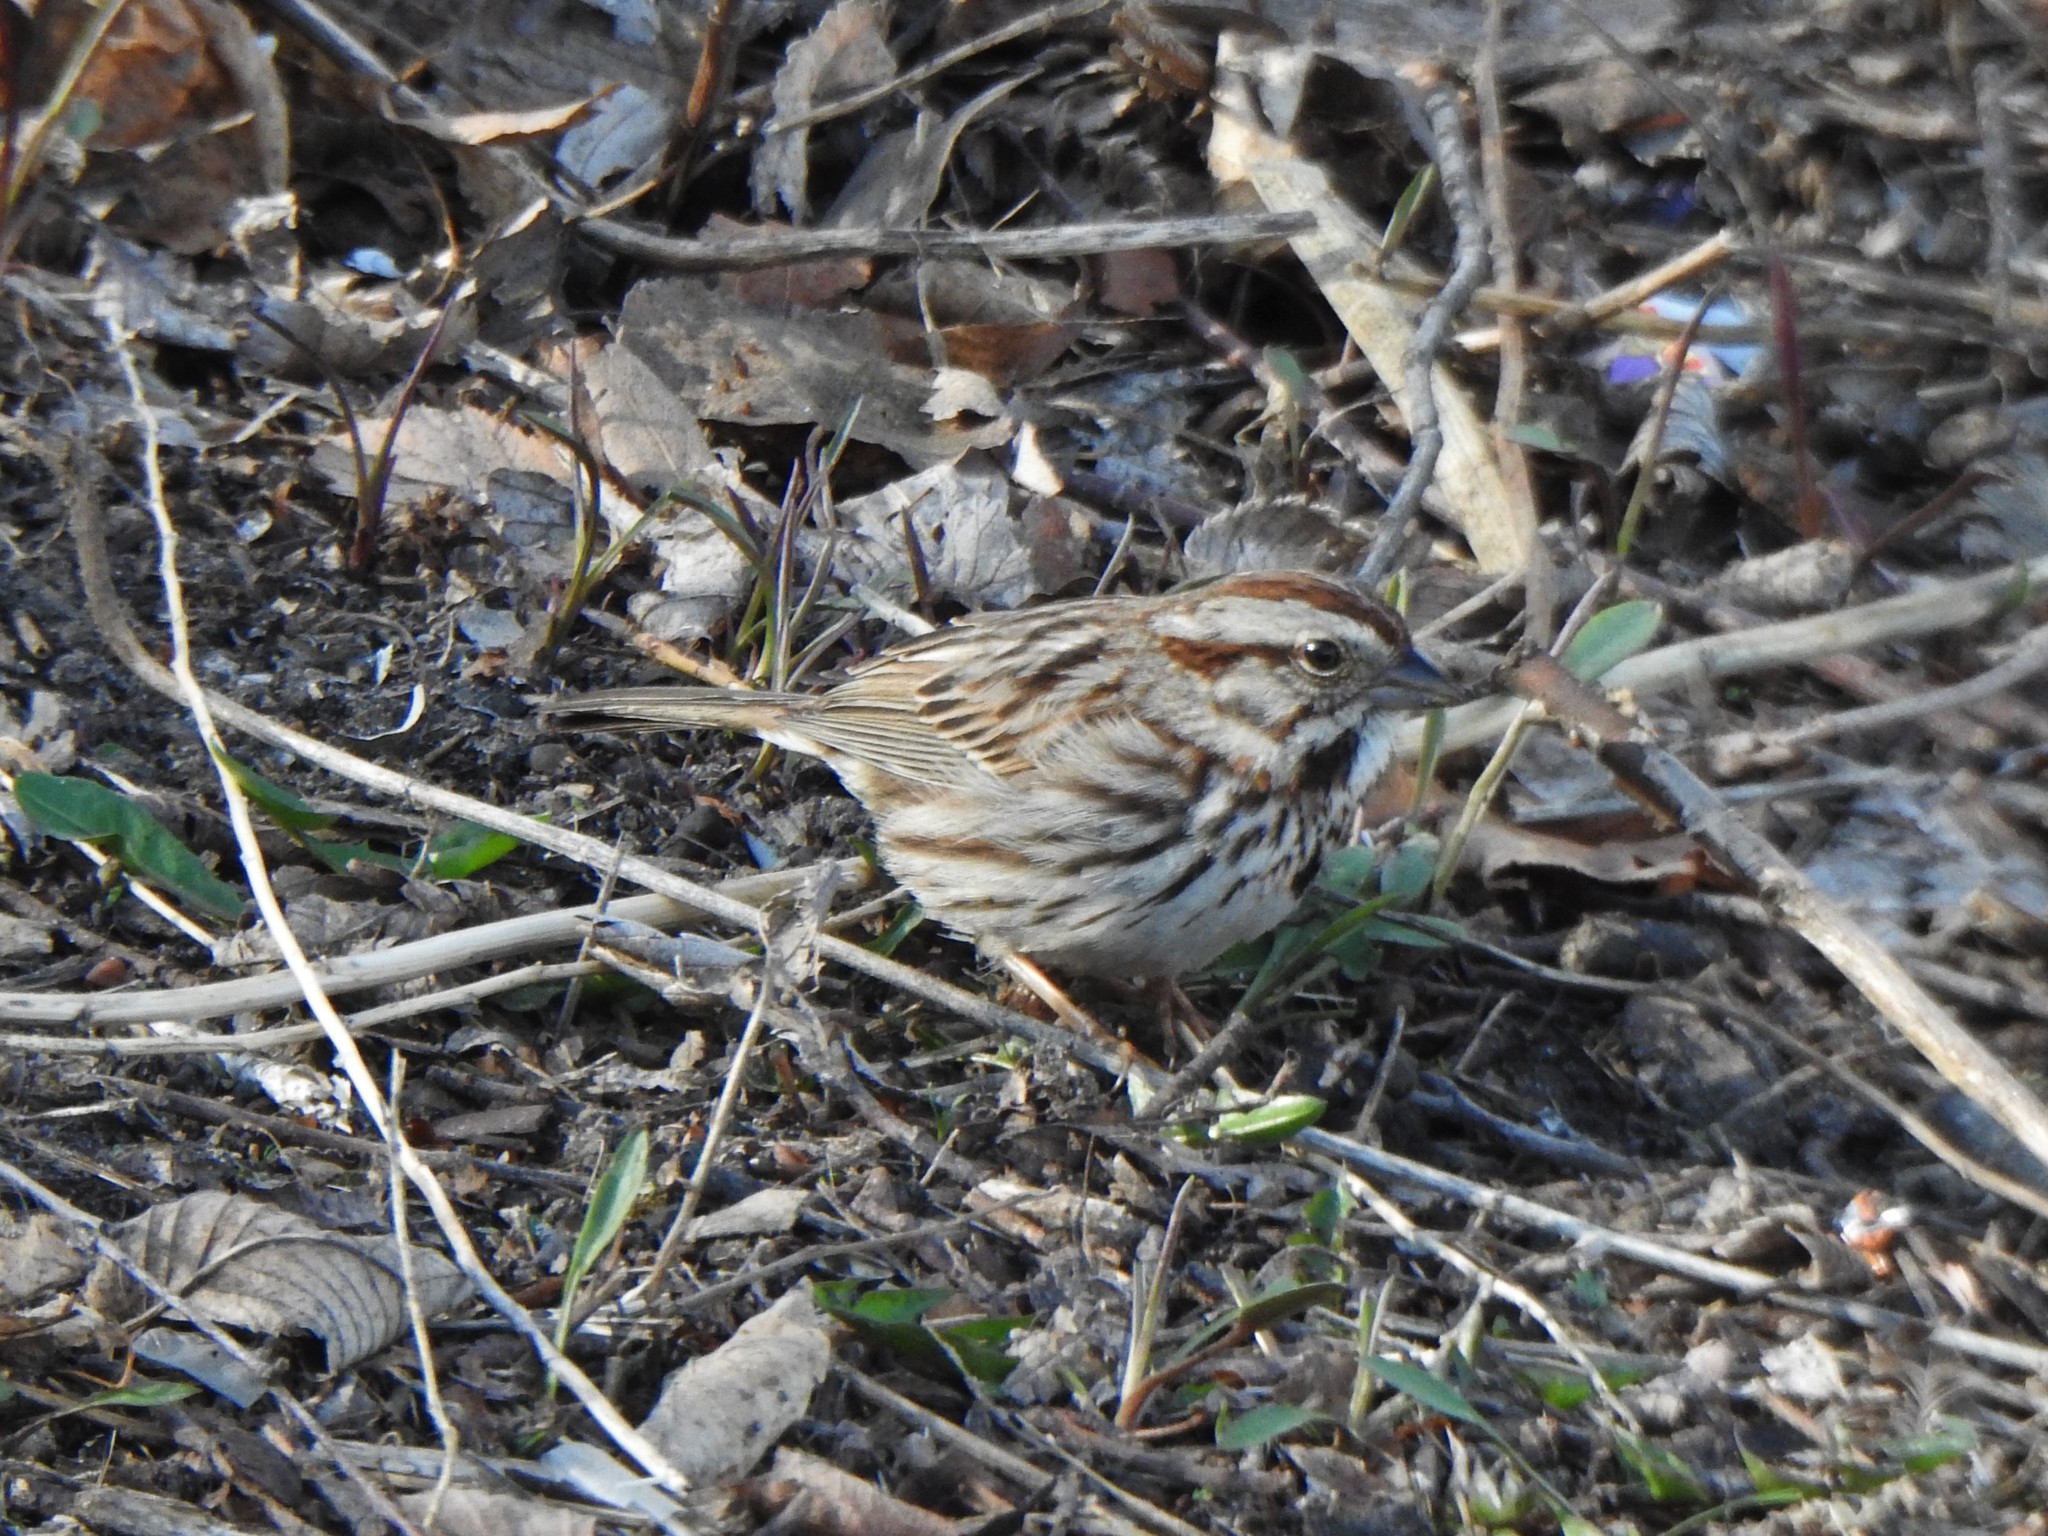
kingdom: Animalia
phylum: Chordata
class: Aves
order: Passeriformes
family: Passerellidae
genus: Melospiza
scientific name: Melospiza melodia
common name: Song sparrow
